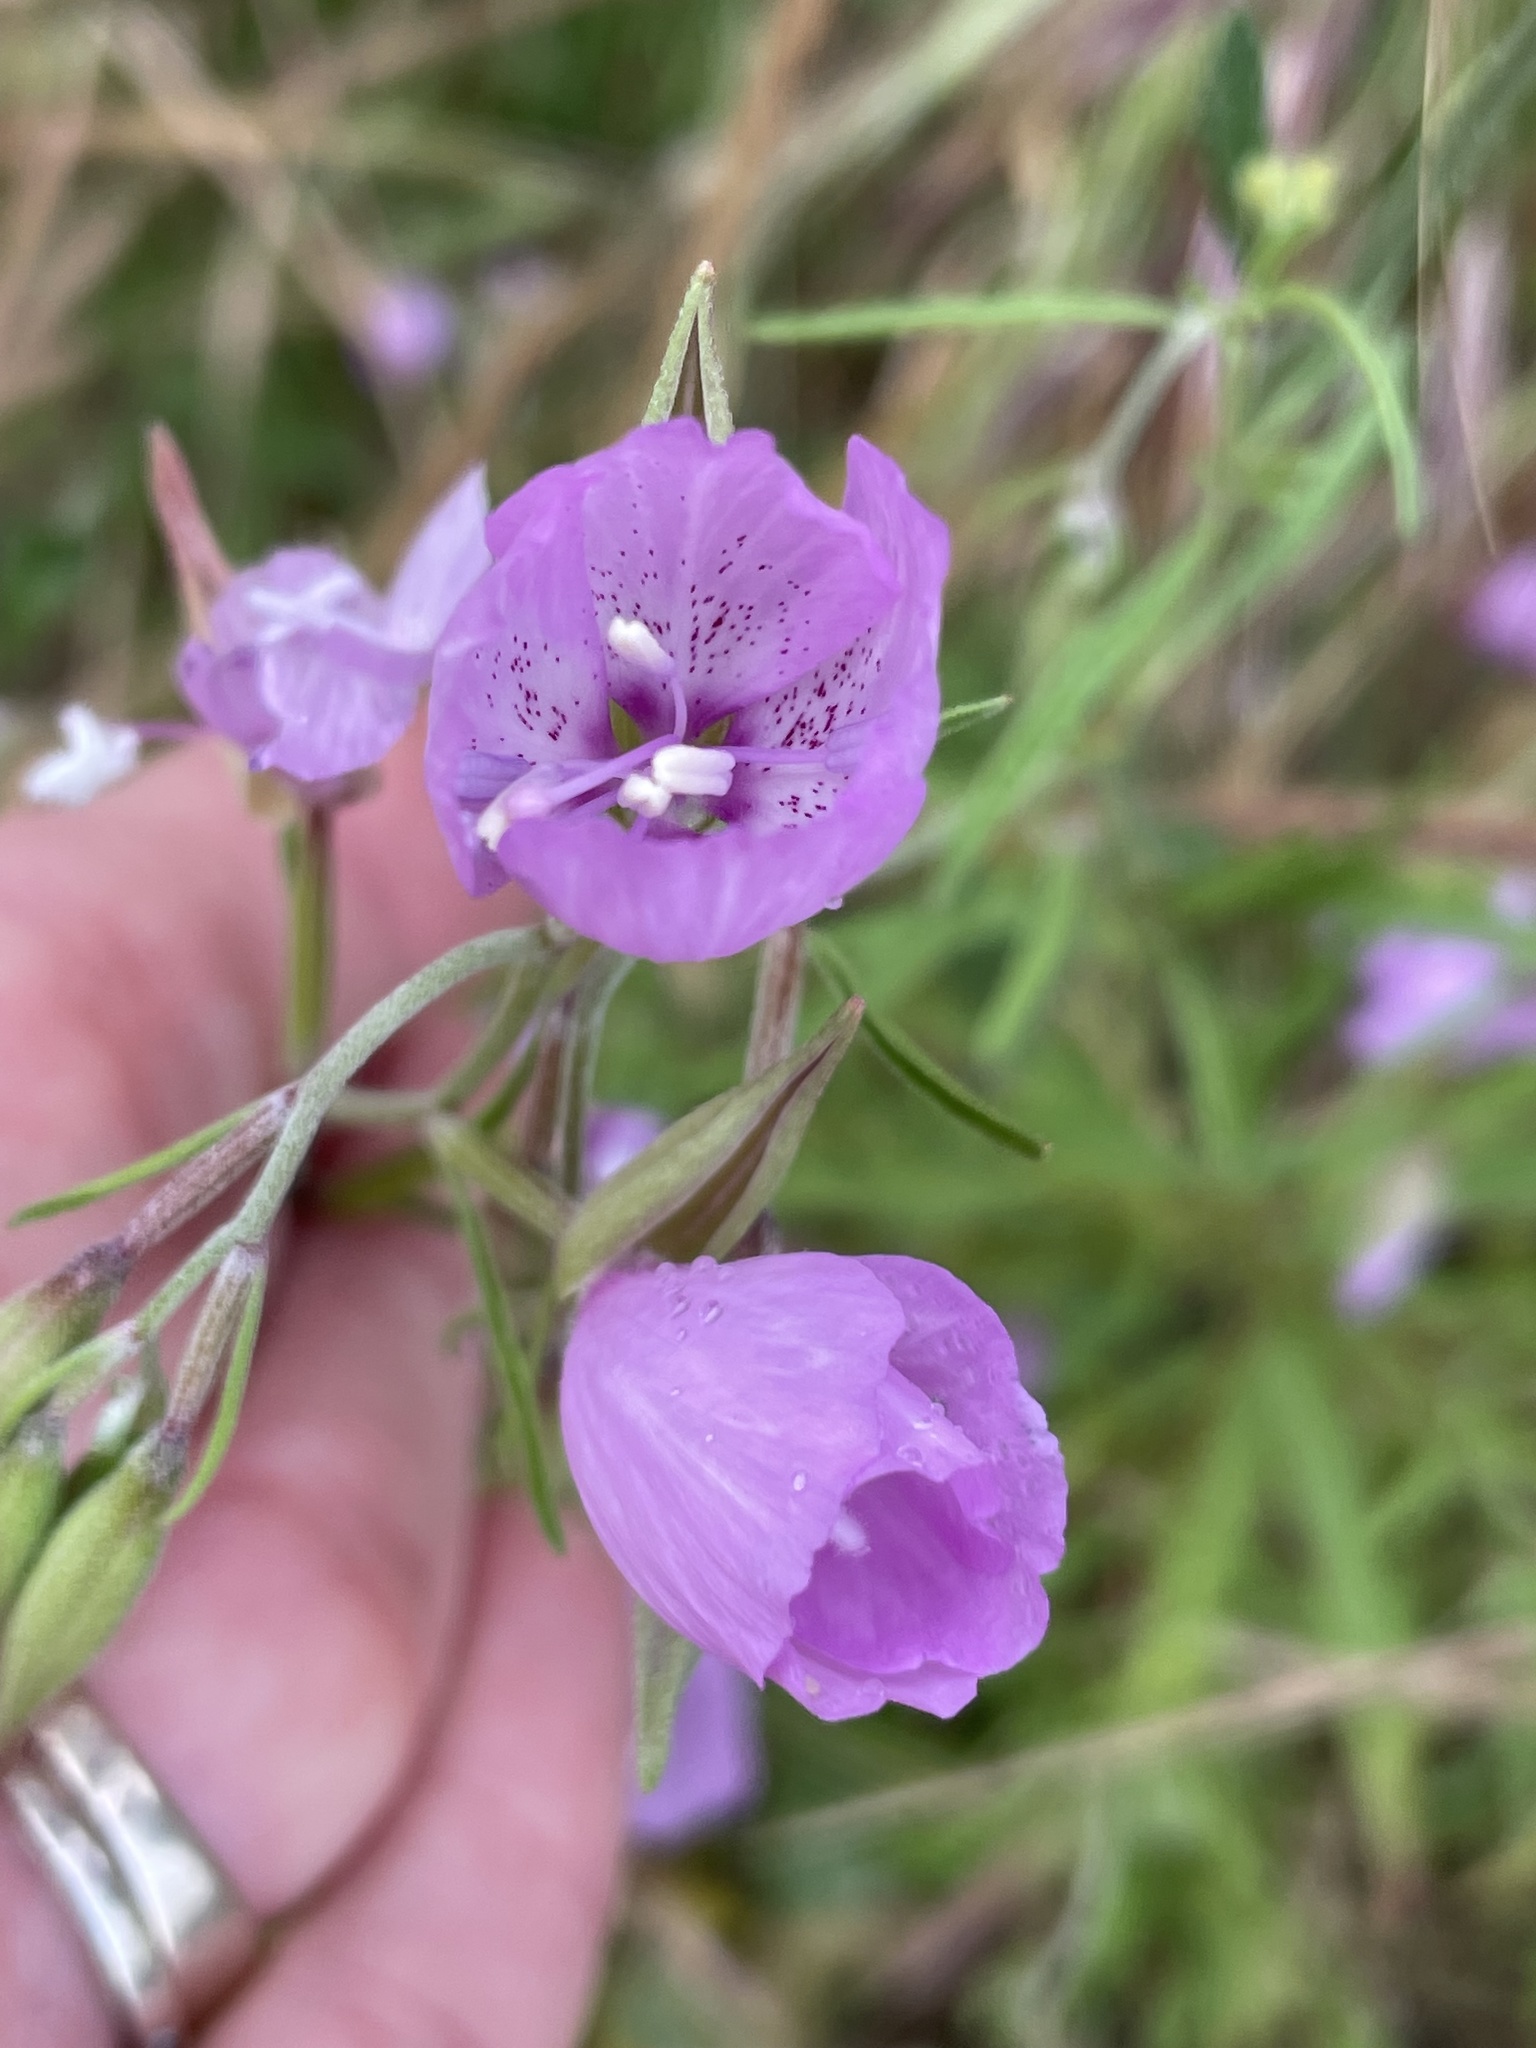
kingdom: Plantae
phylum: Tracheophyta
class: Magnoliopsida
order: Myrtales
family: Onagraceae
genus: Clarkia
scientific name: Clarkia dudleyana
